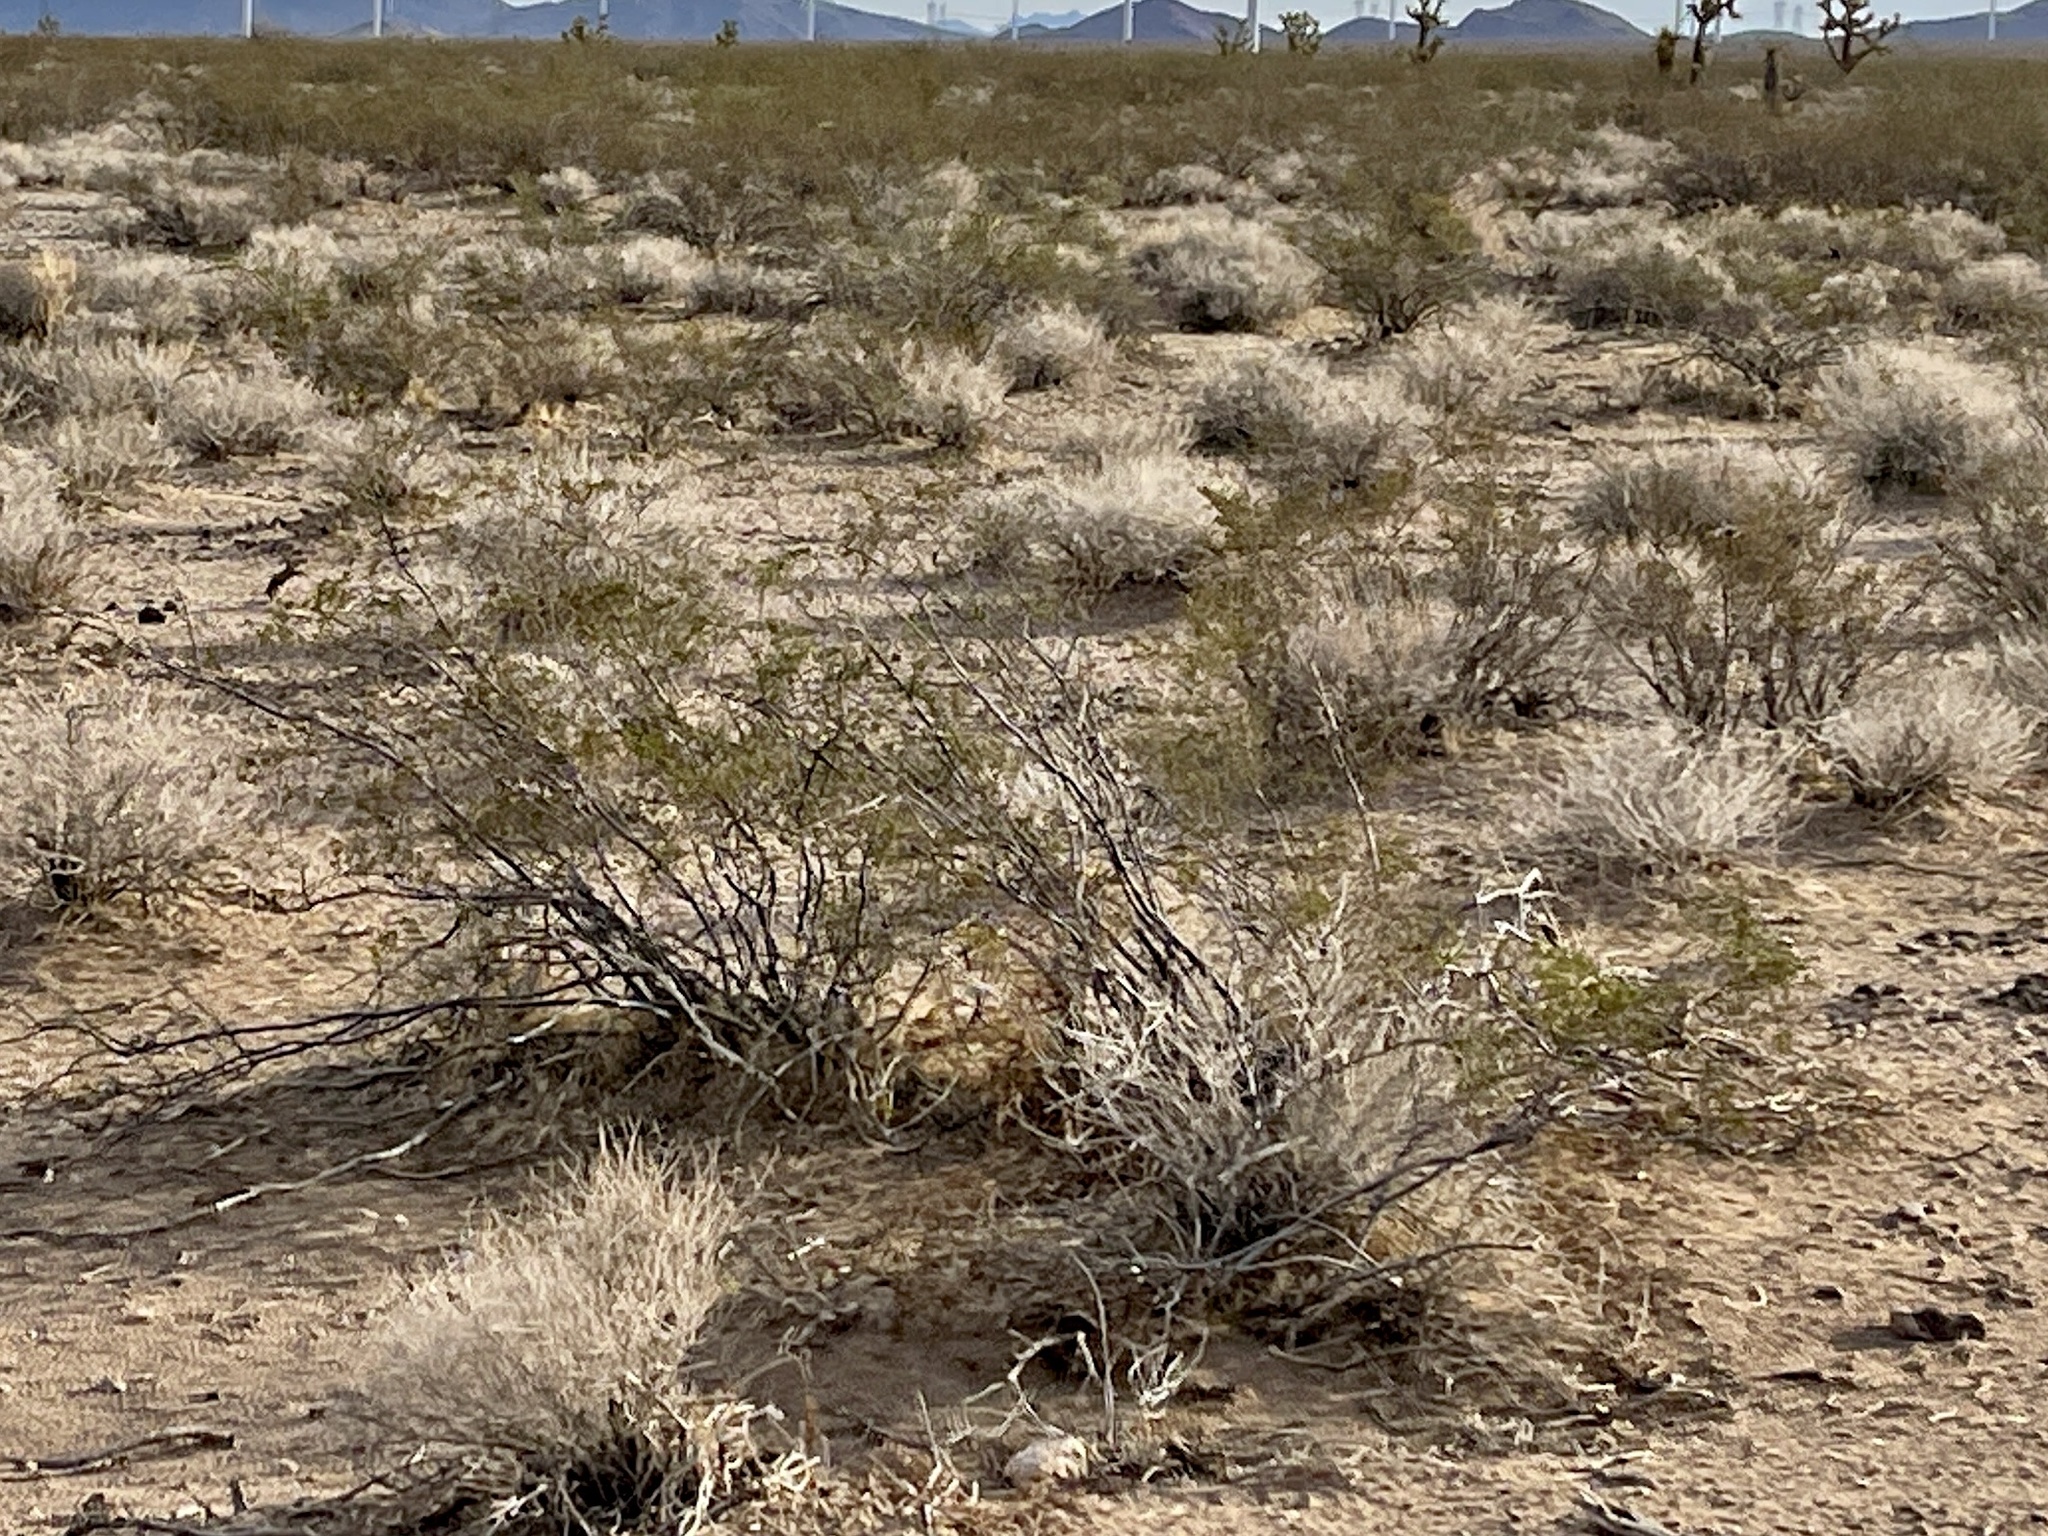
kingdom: Plantae
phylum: Tracheophyta
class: Magnoliopsida
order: Zygophyllales
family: Zygophyllaceae
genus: Larrea
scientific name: Larrea tridentata
